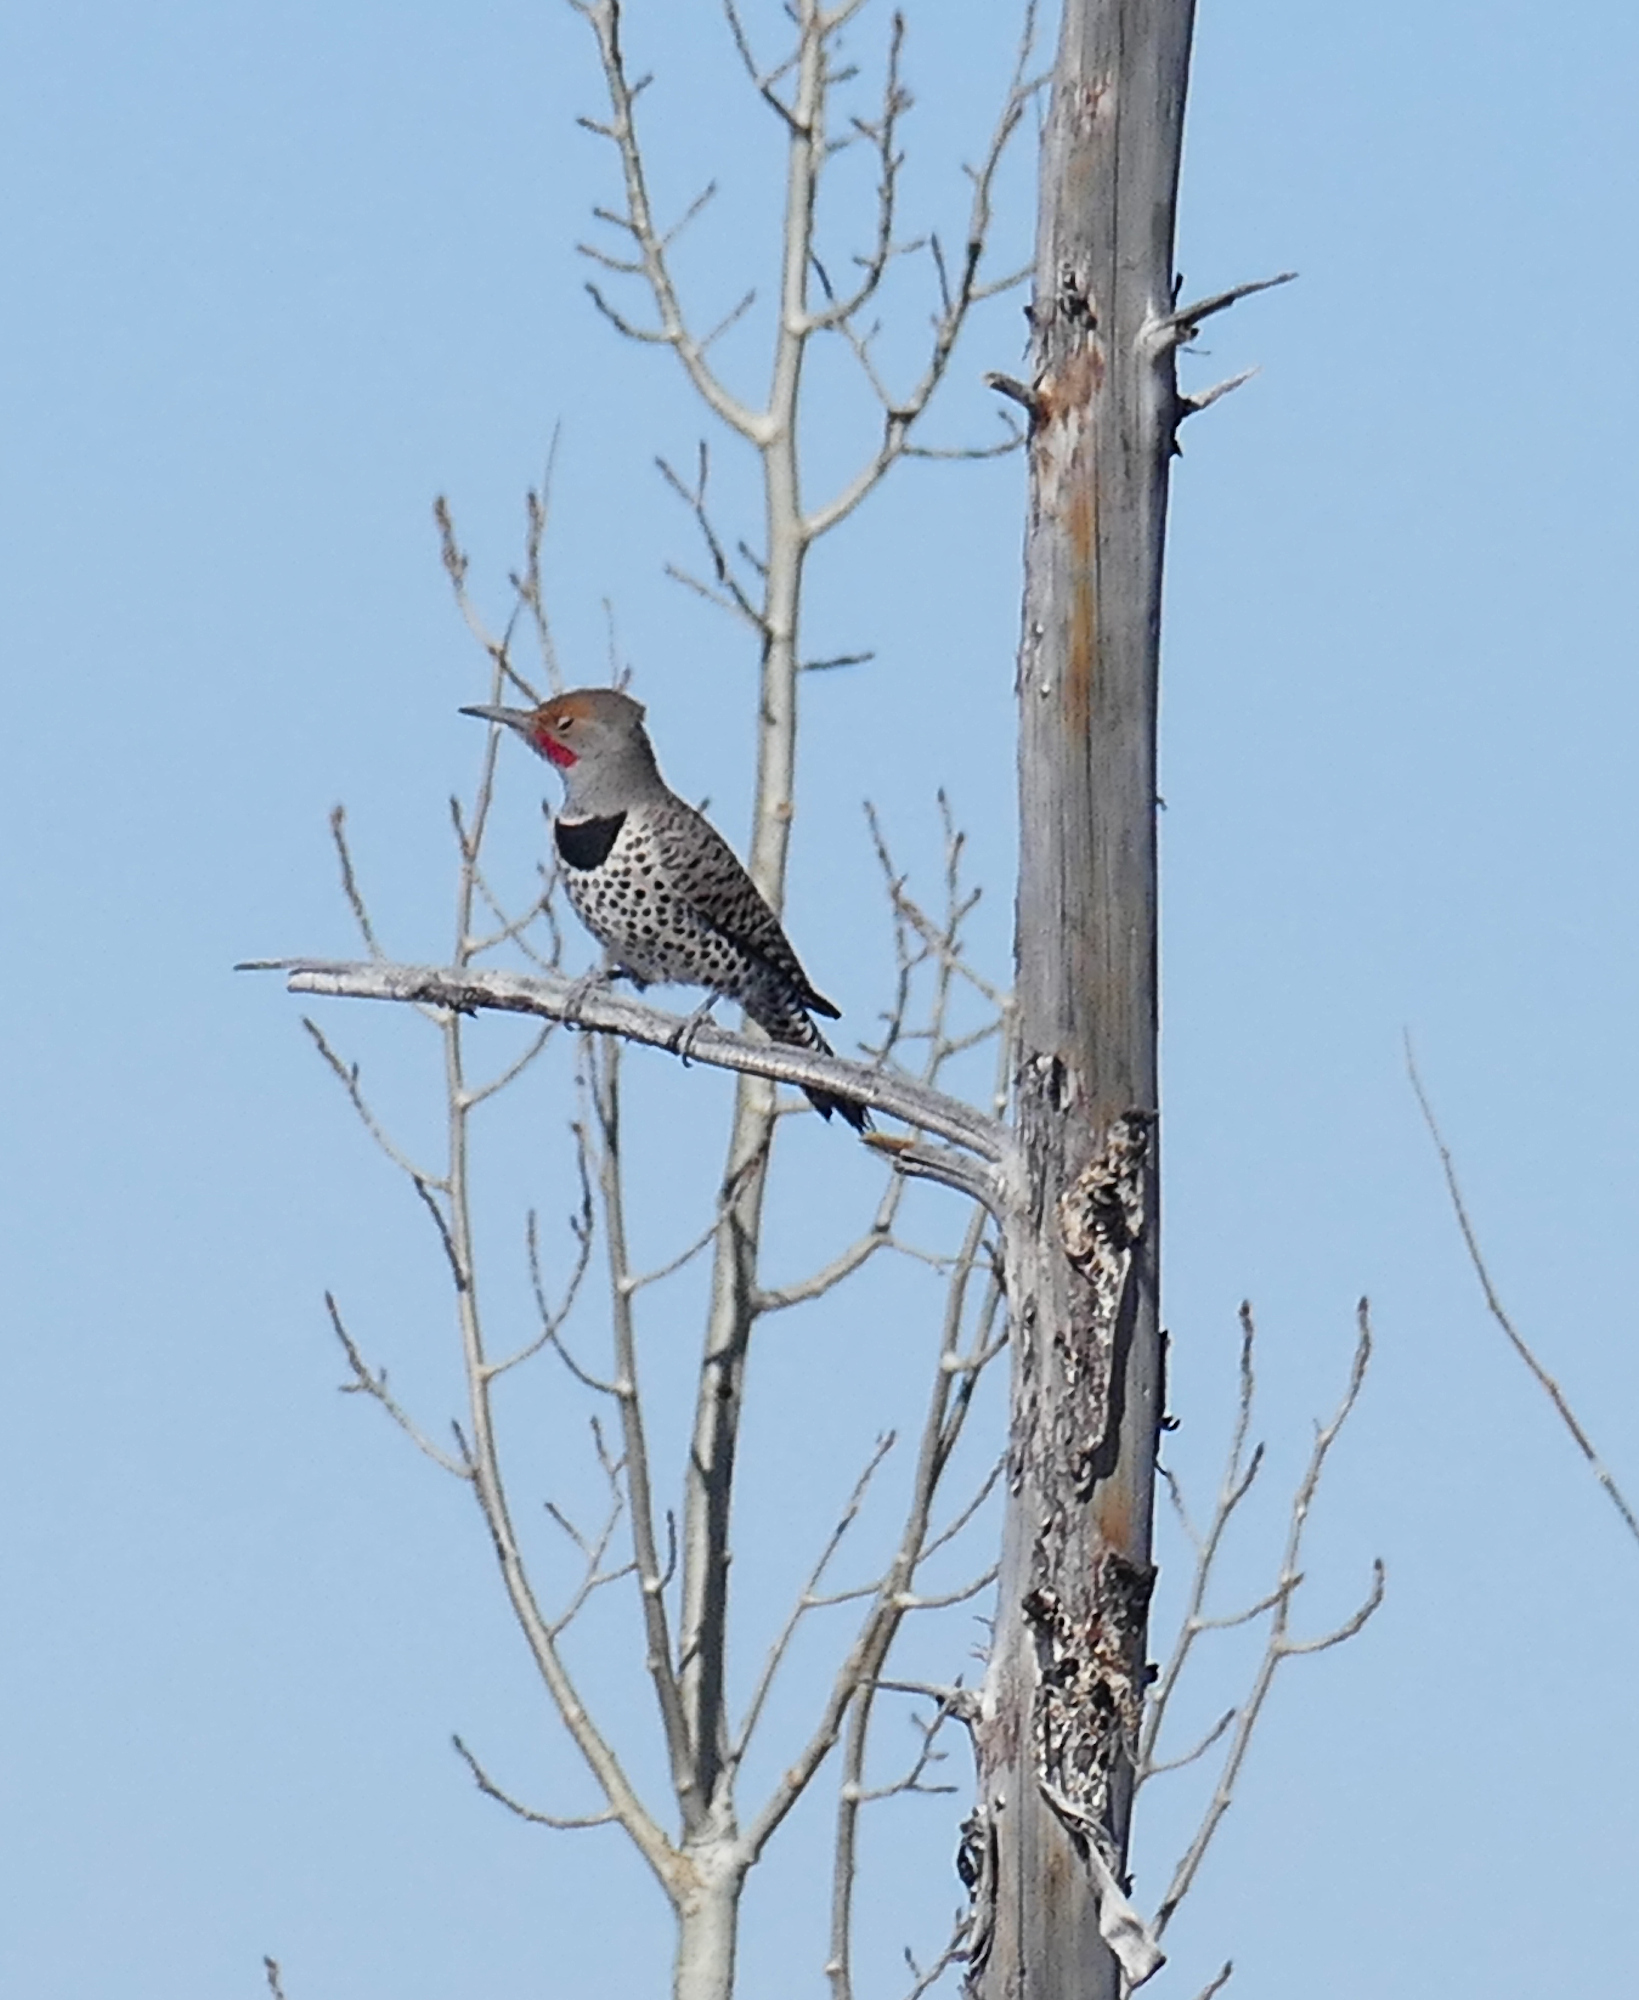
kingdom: Animalia
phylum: Chordata
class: Aves
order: Piciformes
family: Picidae
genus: Colaptes
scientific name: Colaptes auratus
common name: Northern flicker
